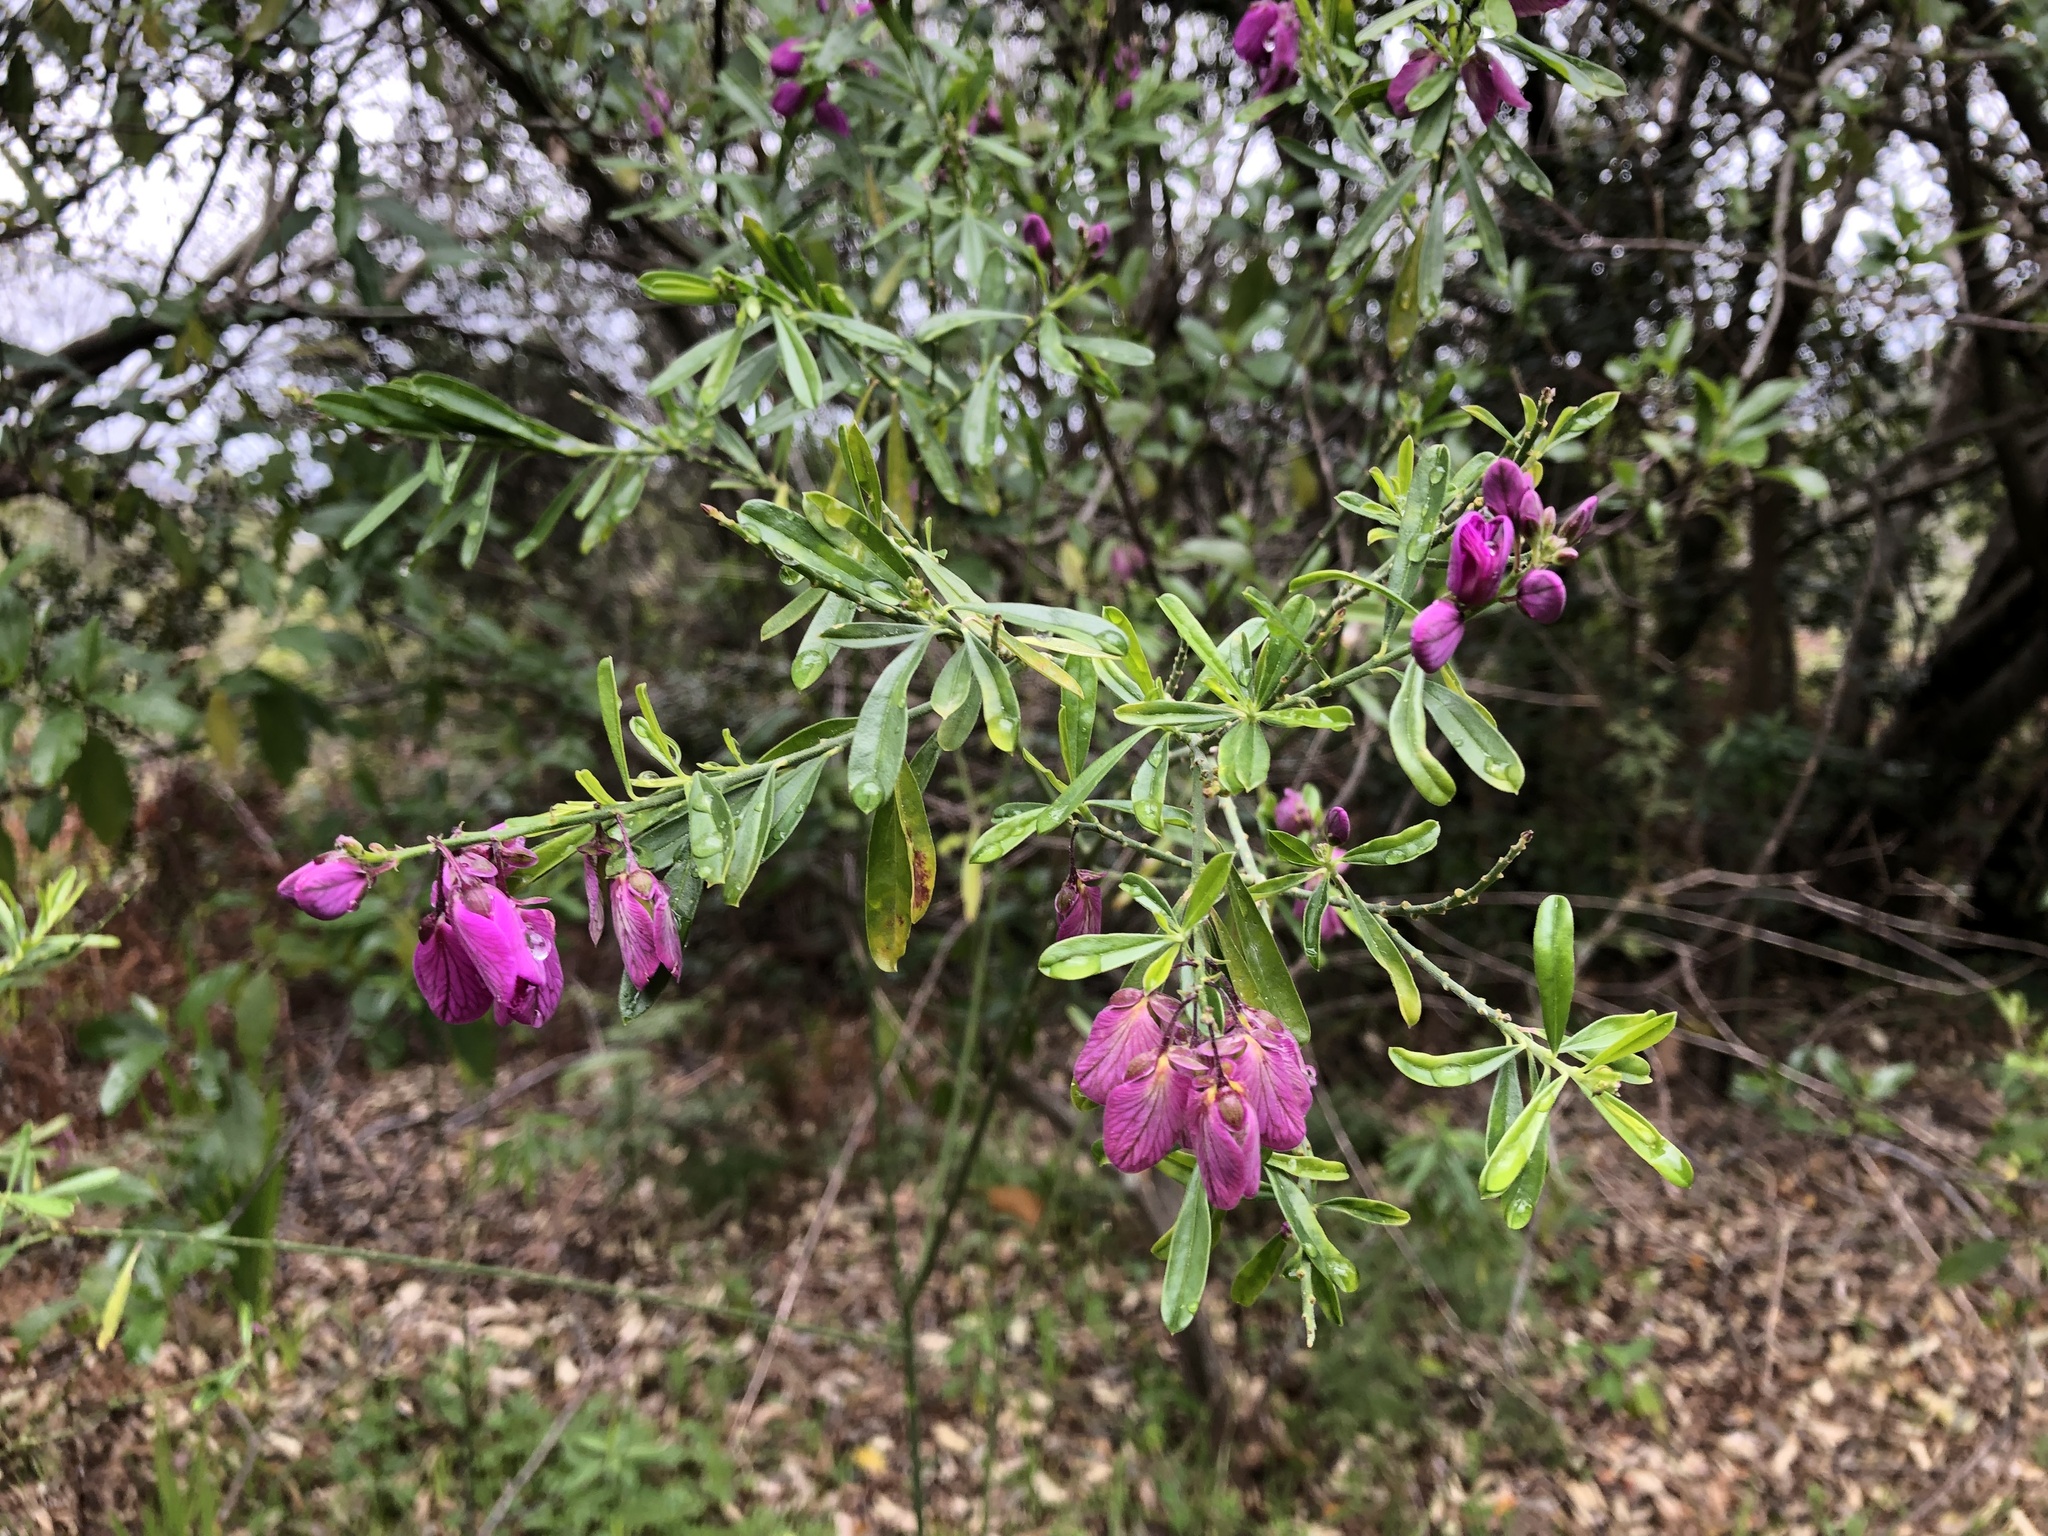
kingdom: Plantae
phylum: Tracheophyta
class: Magnoliopsida
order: Fabales
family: Polygalaceae
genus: Polygala
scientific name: Polygala virgata
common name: Milkwort
